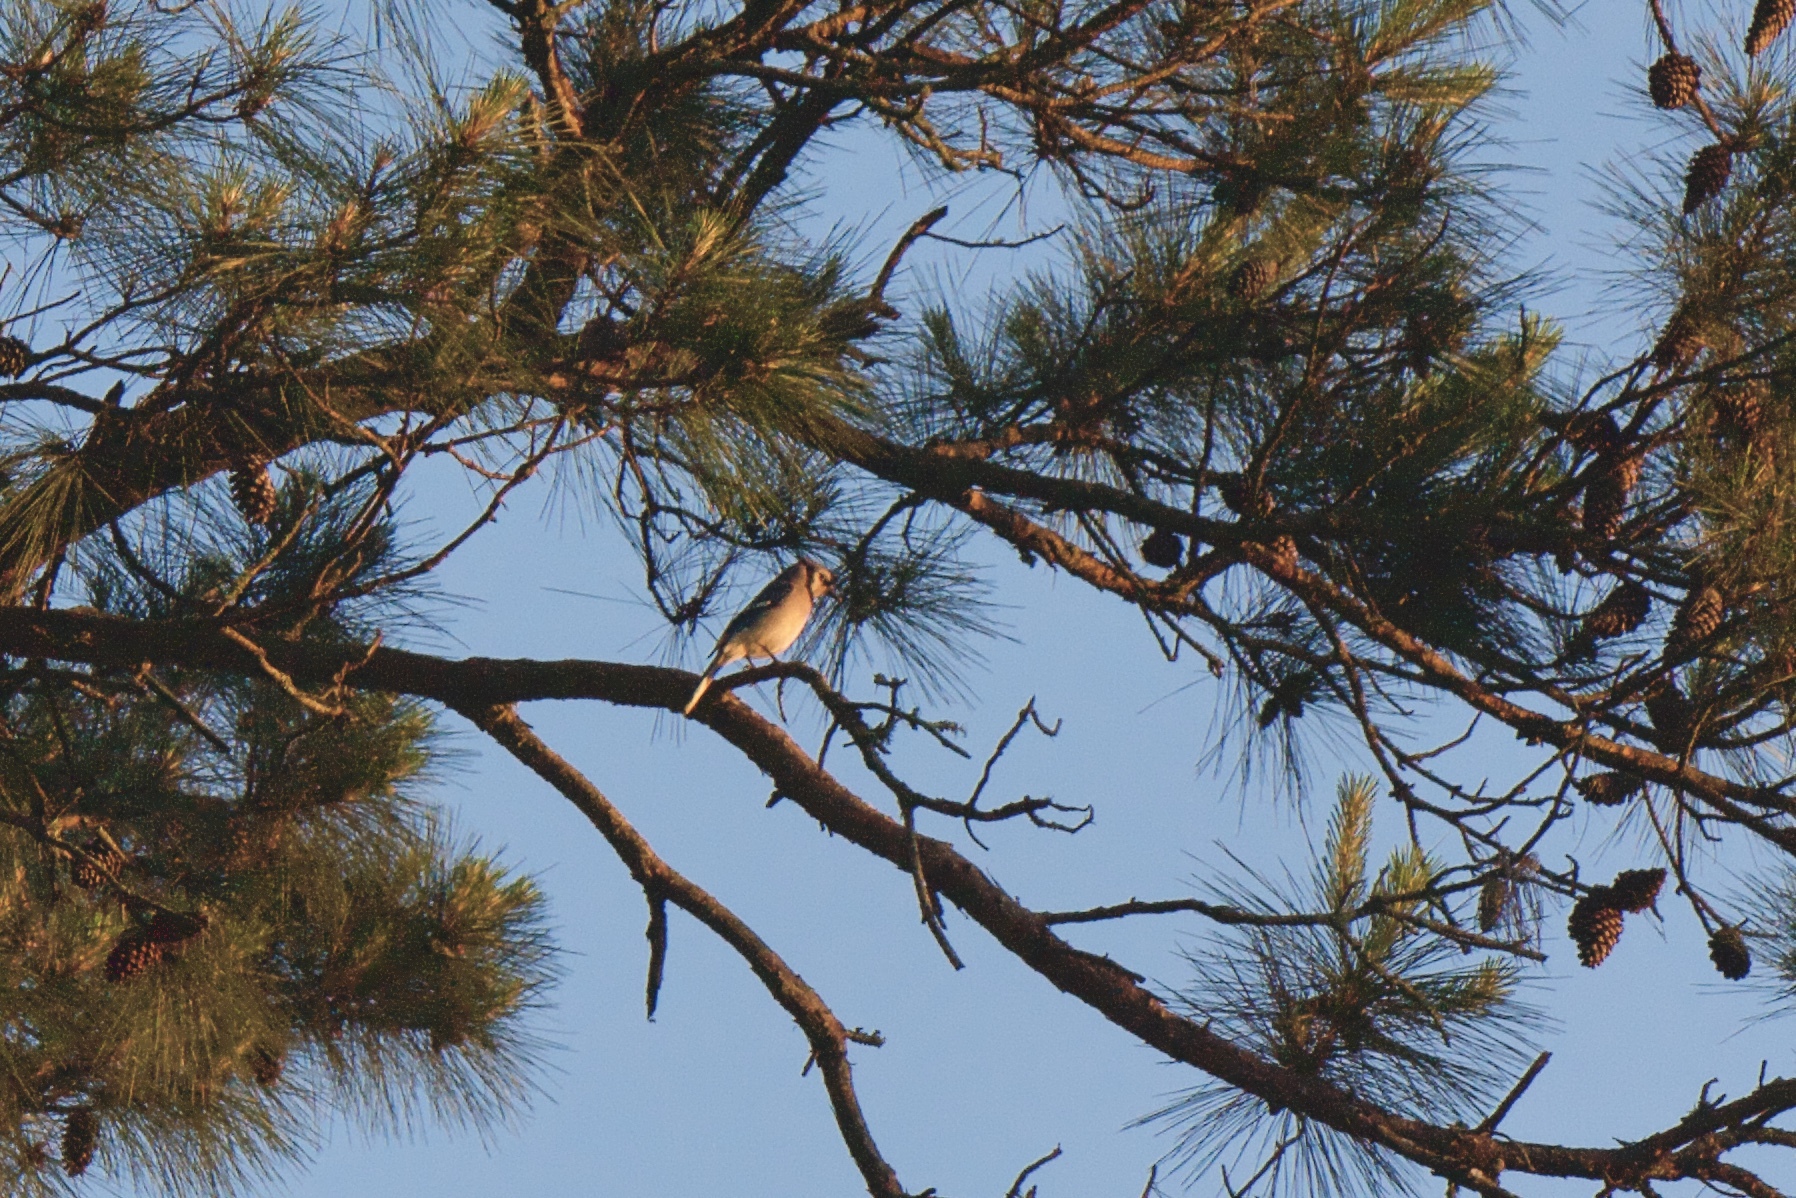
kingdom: Animalia
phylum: Chordata
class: Aves
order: Passeriformes
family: Corvidae
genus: Cyanocitta
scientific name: Cyanocitta cristata
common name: Blue jay
